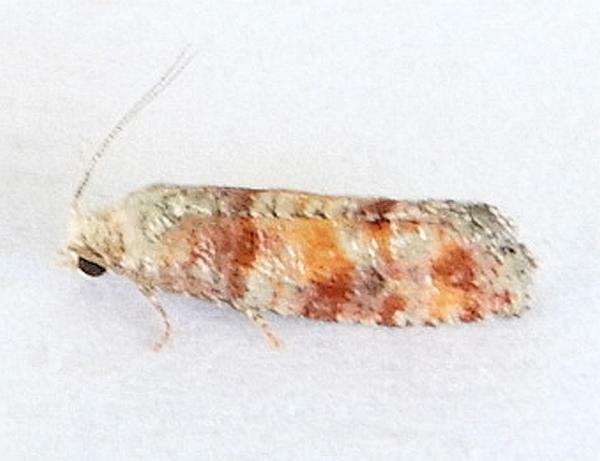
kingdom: Animalia
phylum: Arthropoda
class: Insecta
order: Lepidoptera
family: Tortricidae
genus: Rhyacionia
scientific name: Rhyacionia frustrana
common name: Nantucket pine tip moth
